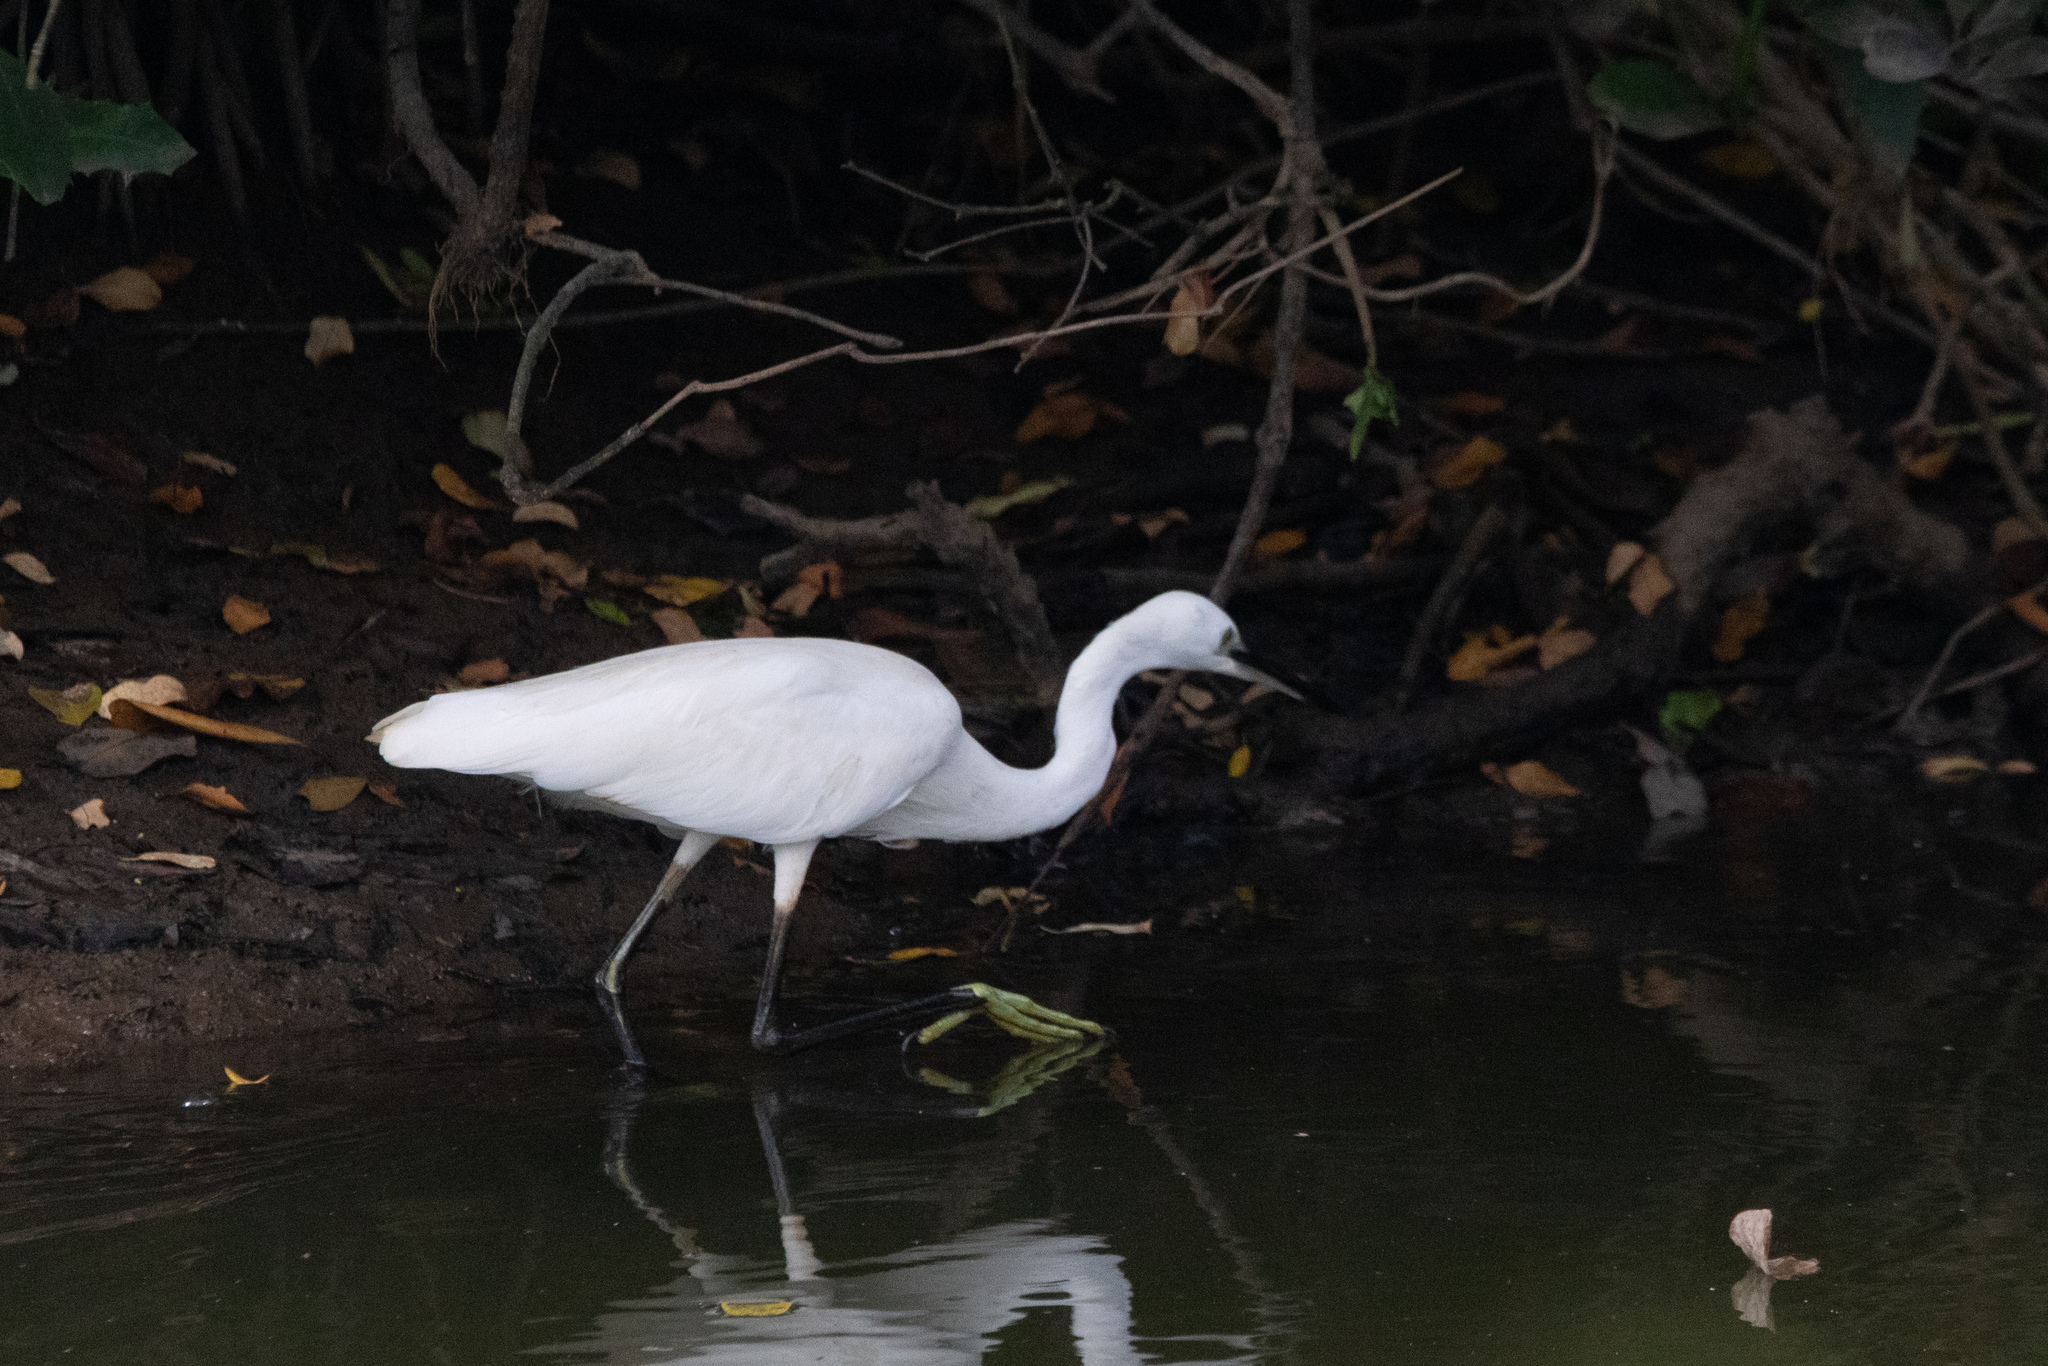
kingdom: Animalia
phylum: Chordata
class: Aves
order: Pelecaniformes
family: Ardeidae
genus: Egretta
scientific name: Egretta garzetta
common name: Little egret
